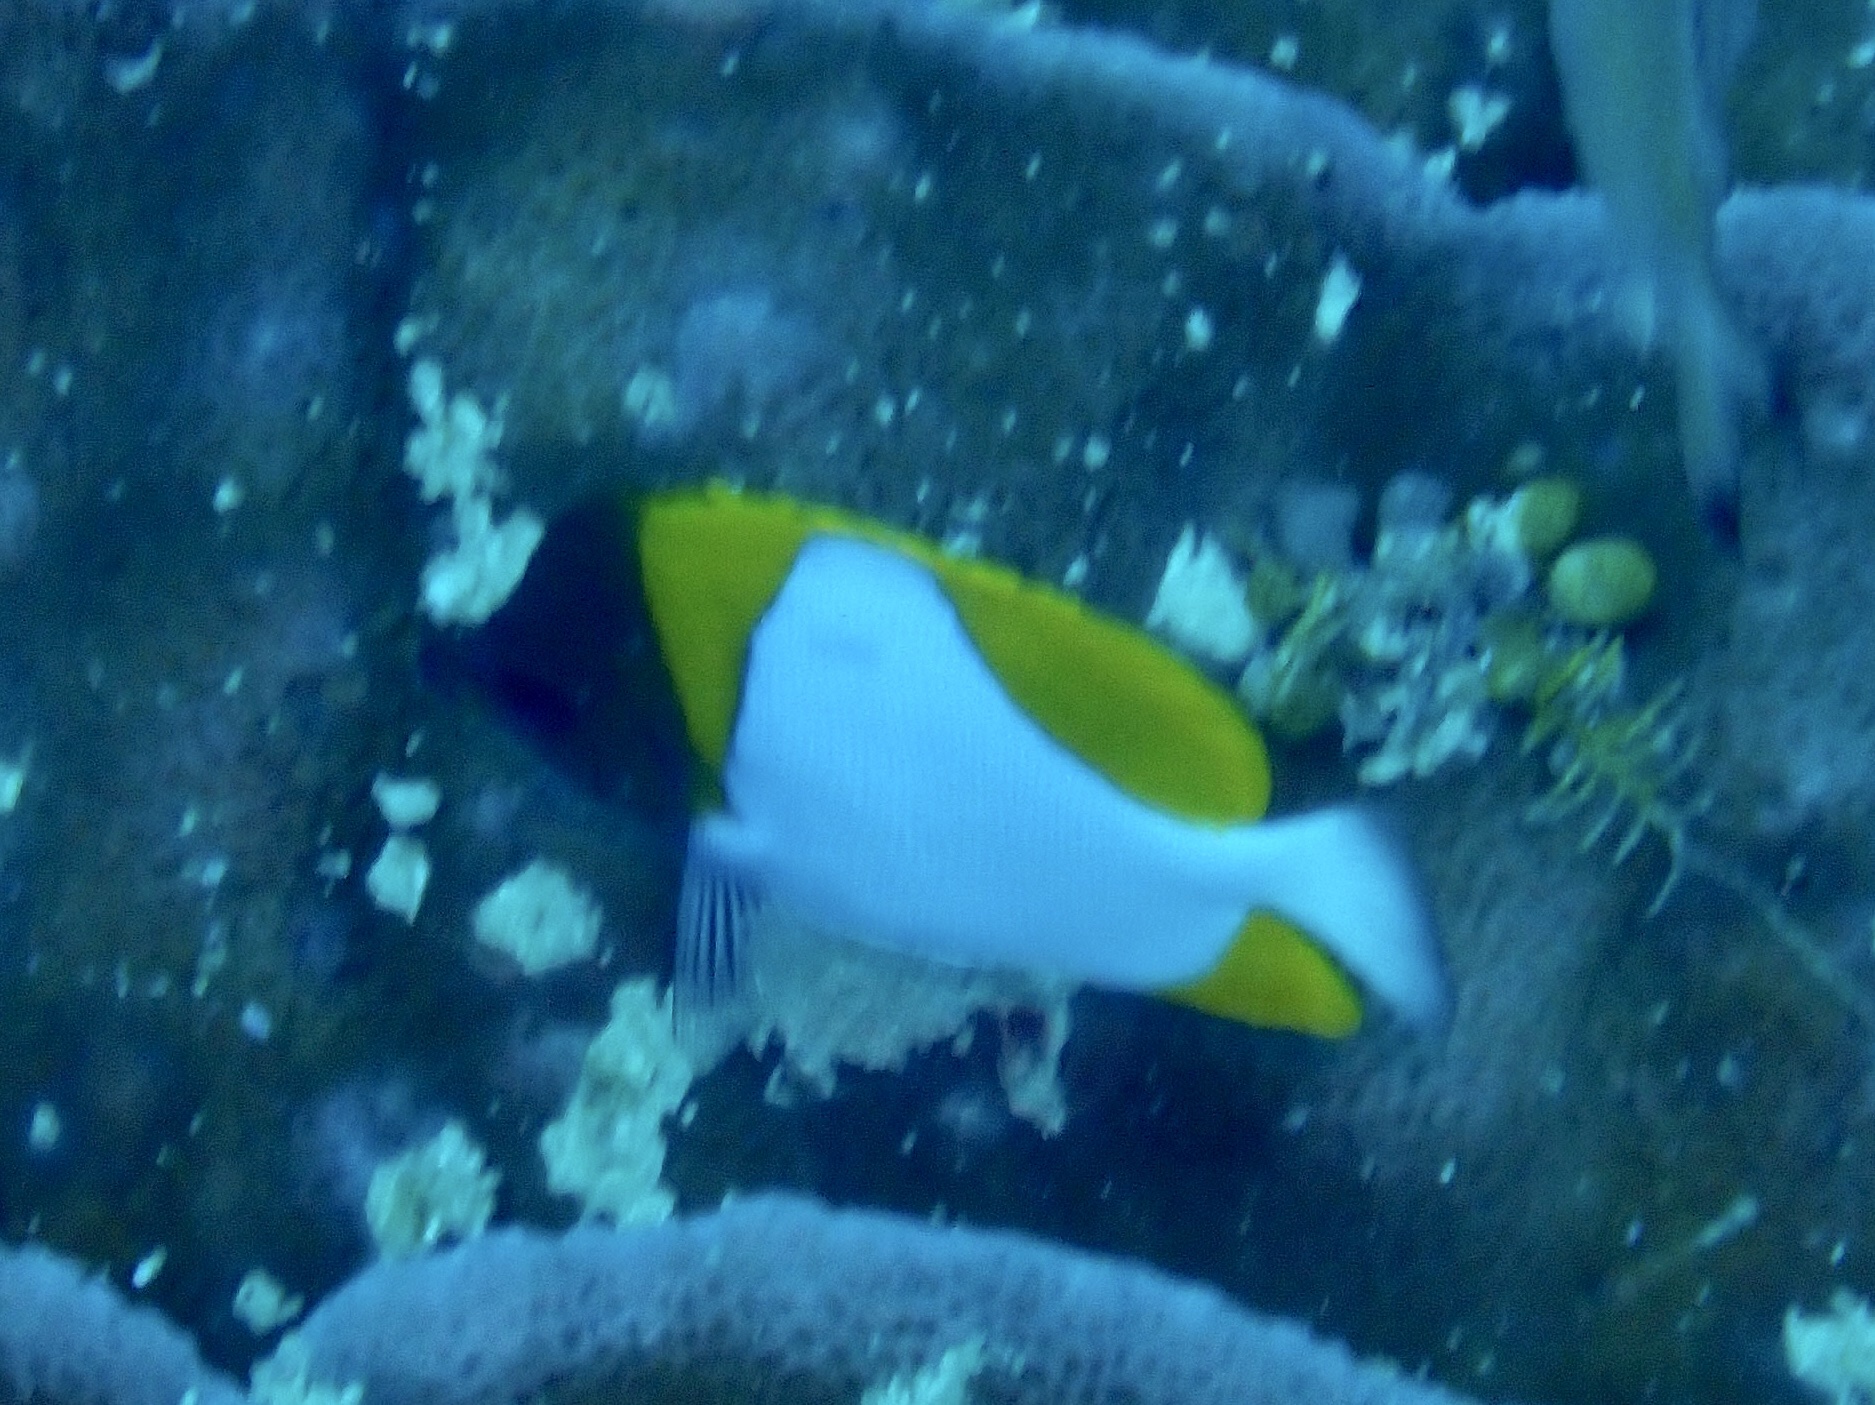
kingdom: Animalia
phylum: Chordata
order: Perciformes
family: Chaetodontidae
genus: Hemitaurichthys
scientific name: Hemitaurichthys polylepis
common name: Brushytoothed butterflyfish
